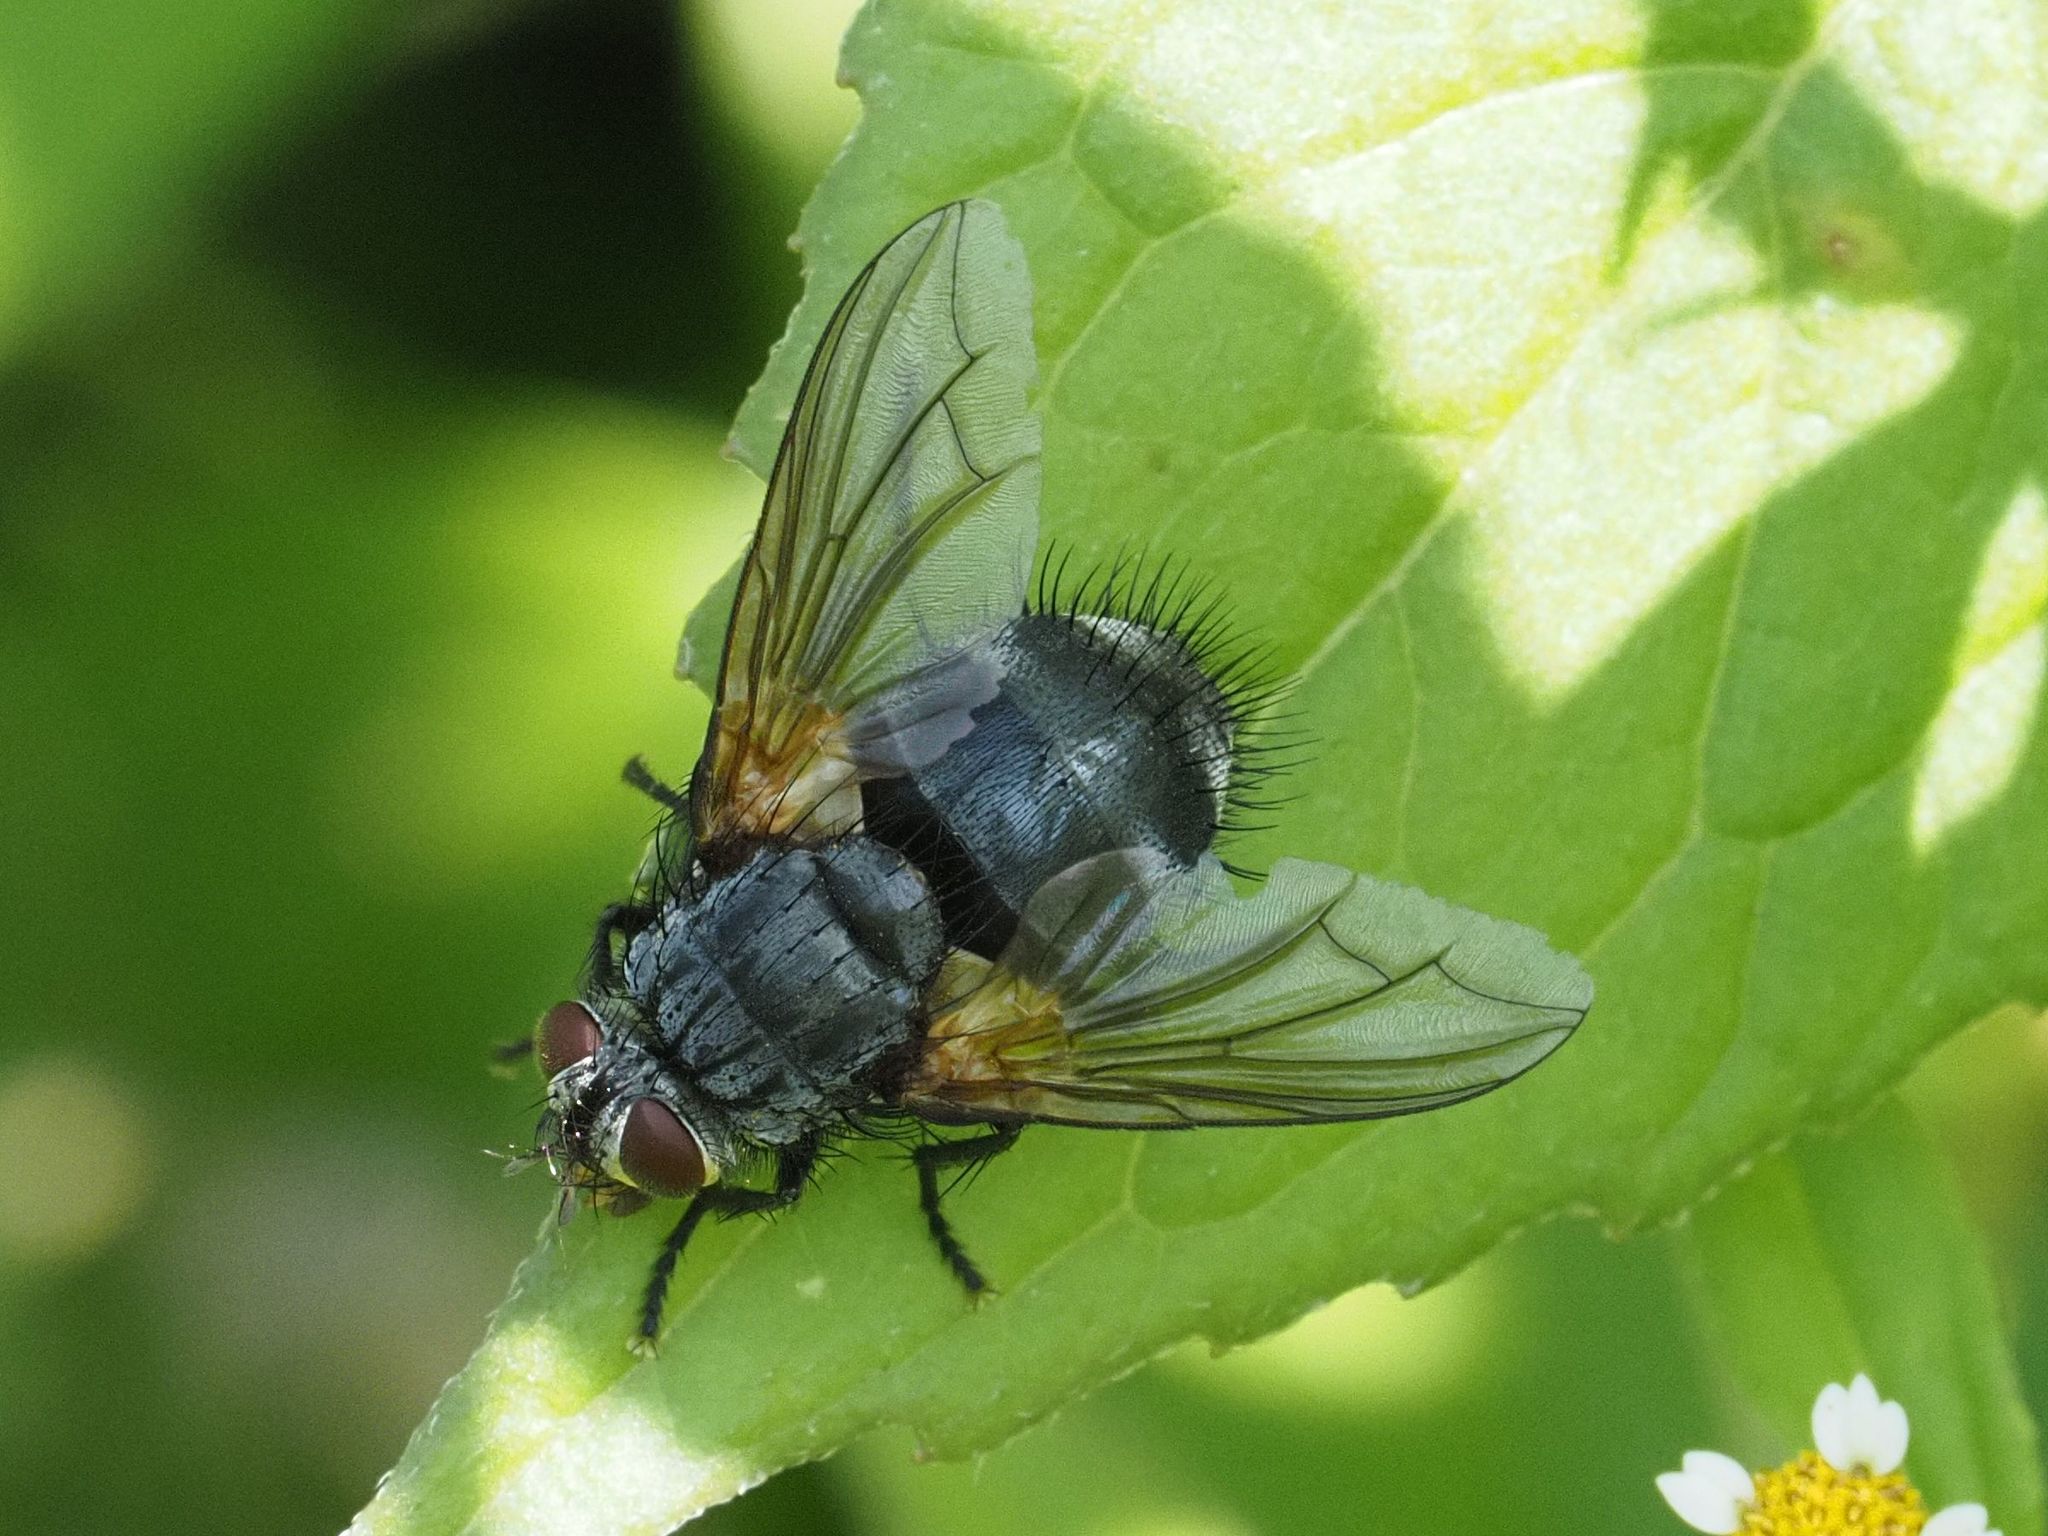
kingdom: Animalia
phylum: Arthropoda
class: Insecta
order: Diptera
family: Tachinidae
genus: Nemoraea
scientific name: Nemoraea pellucida
